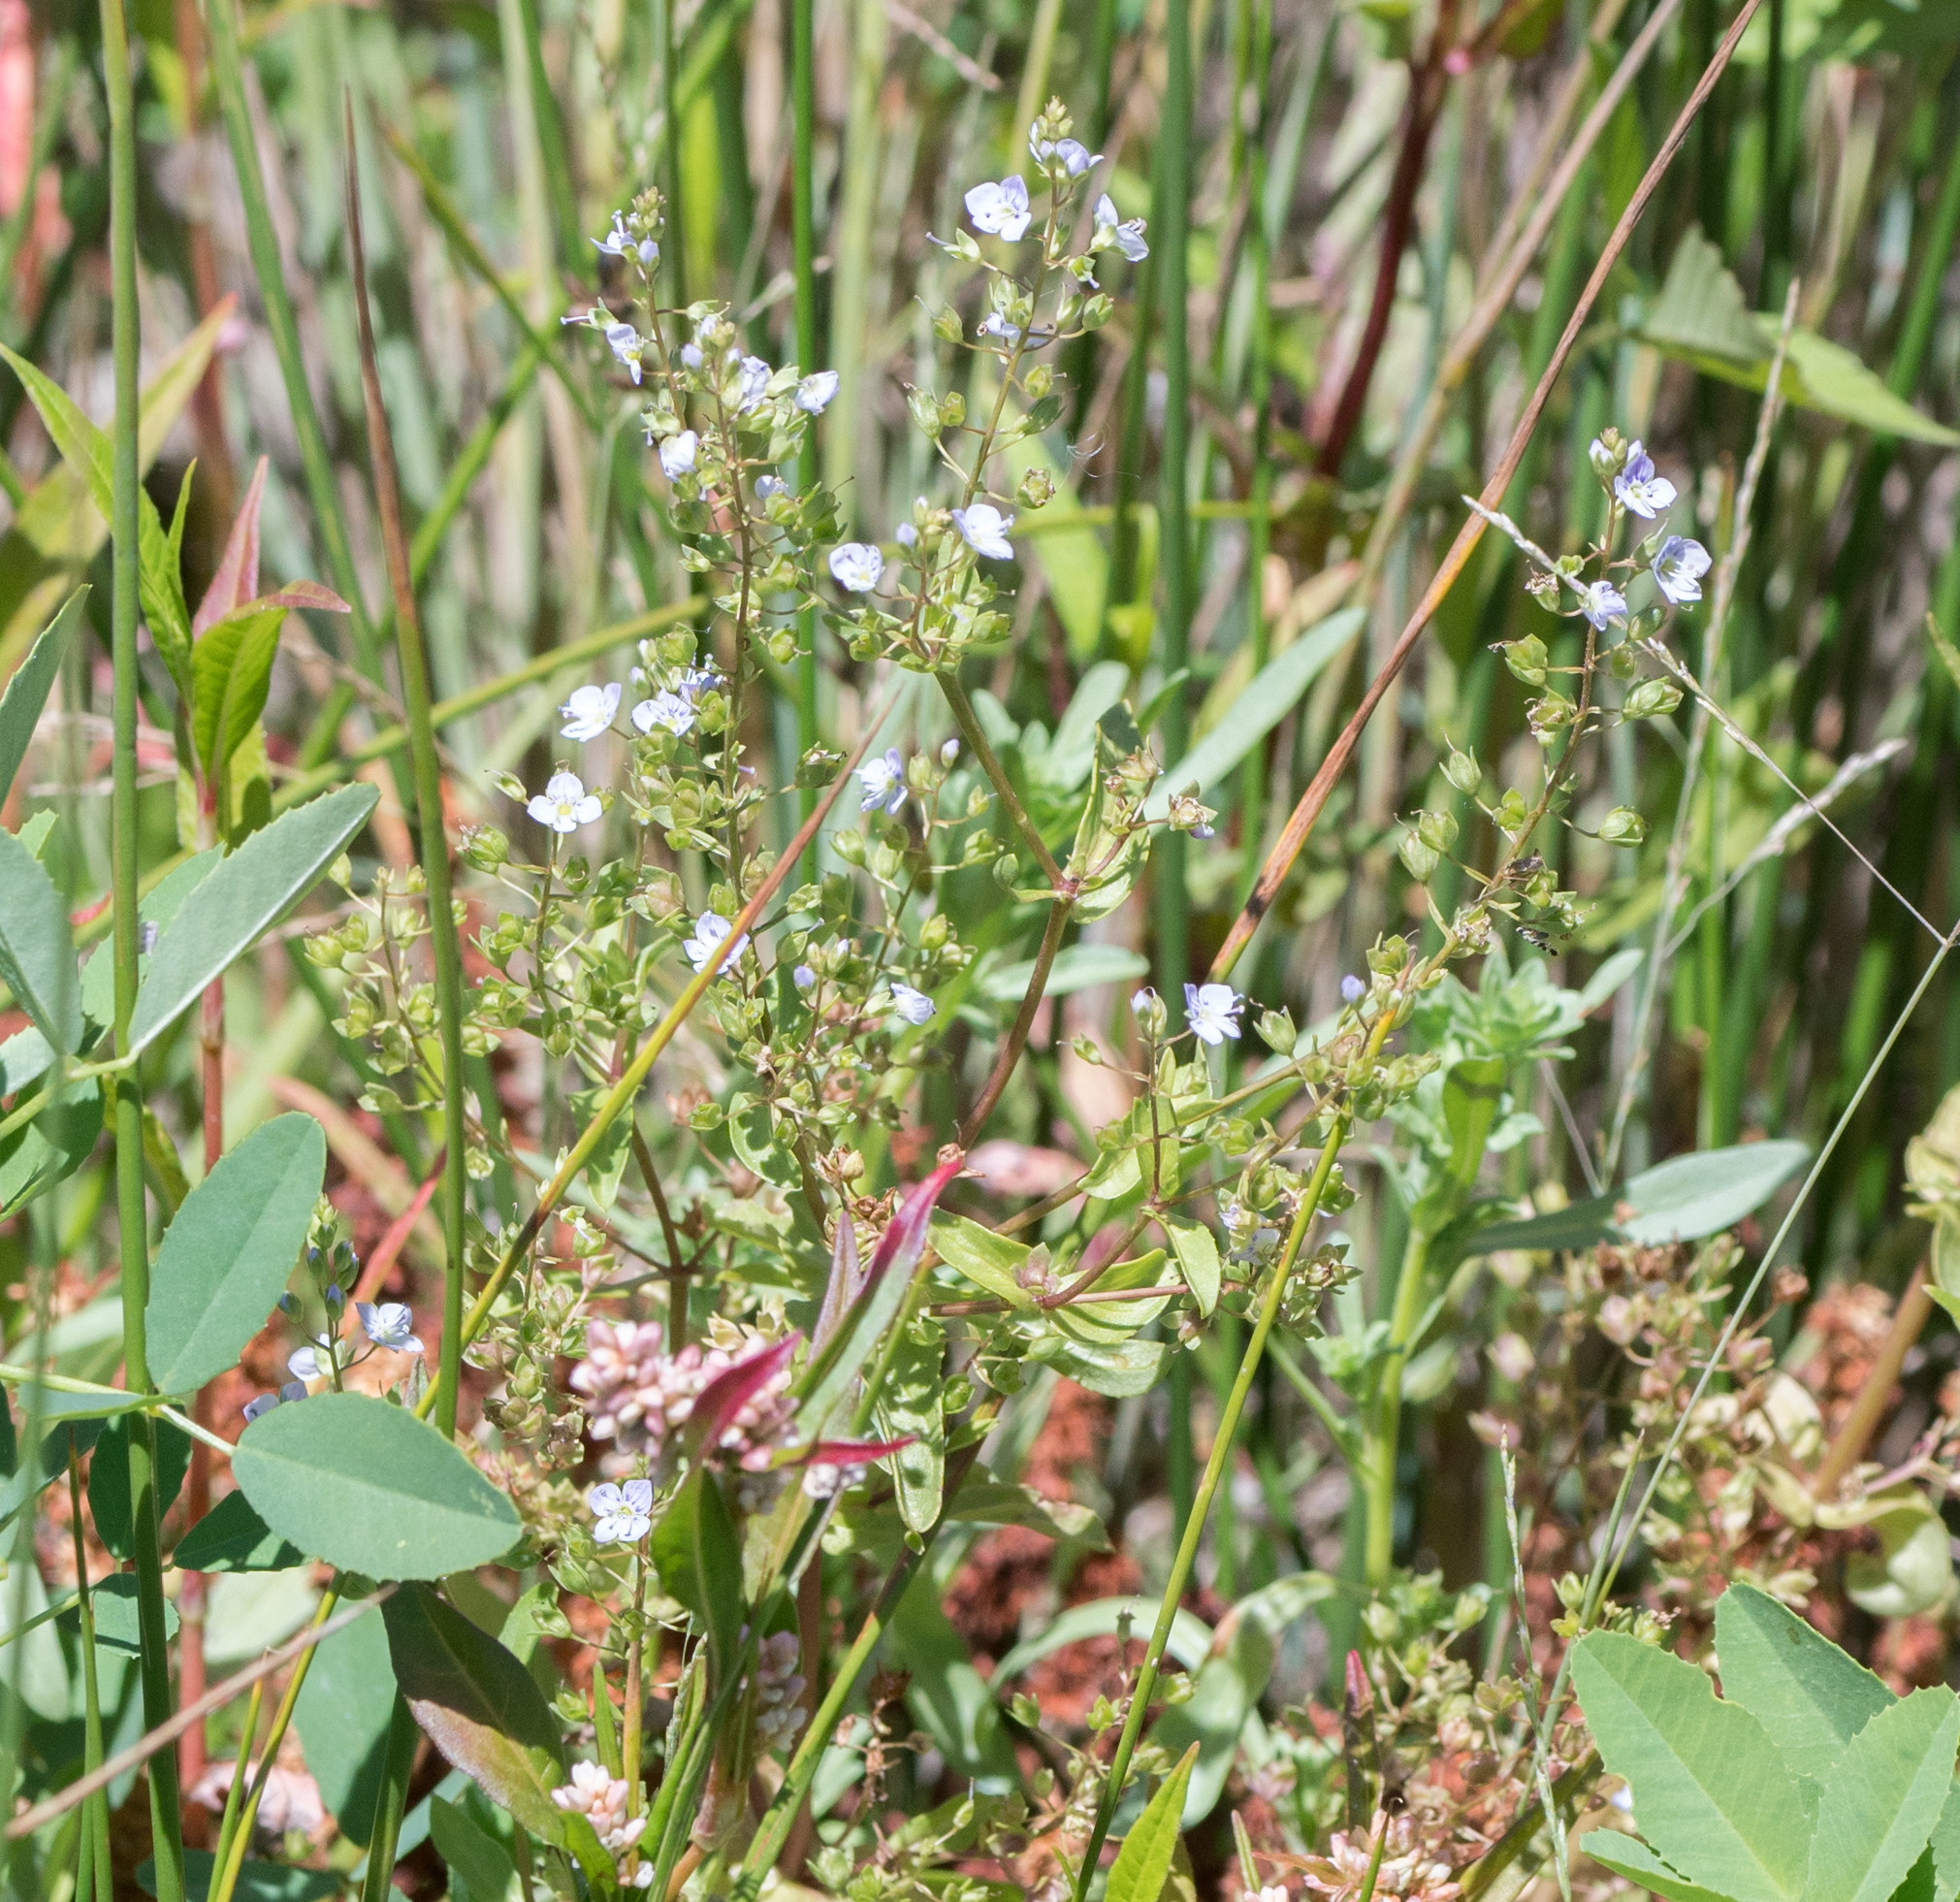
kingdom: Plantae
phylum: Tracheophyta
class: Magnoliopsida
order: Lamiales
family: Plantaginaceae
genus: Veronica
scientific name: Veronica anagallis-aquatica
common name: Water speedwell
